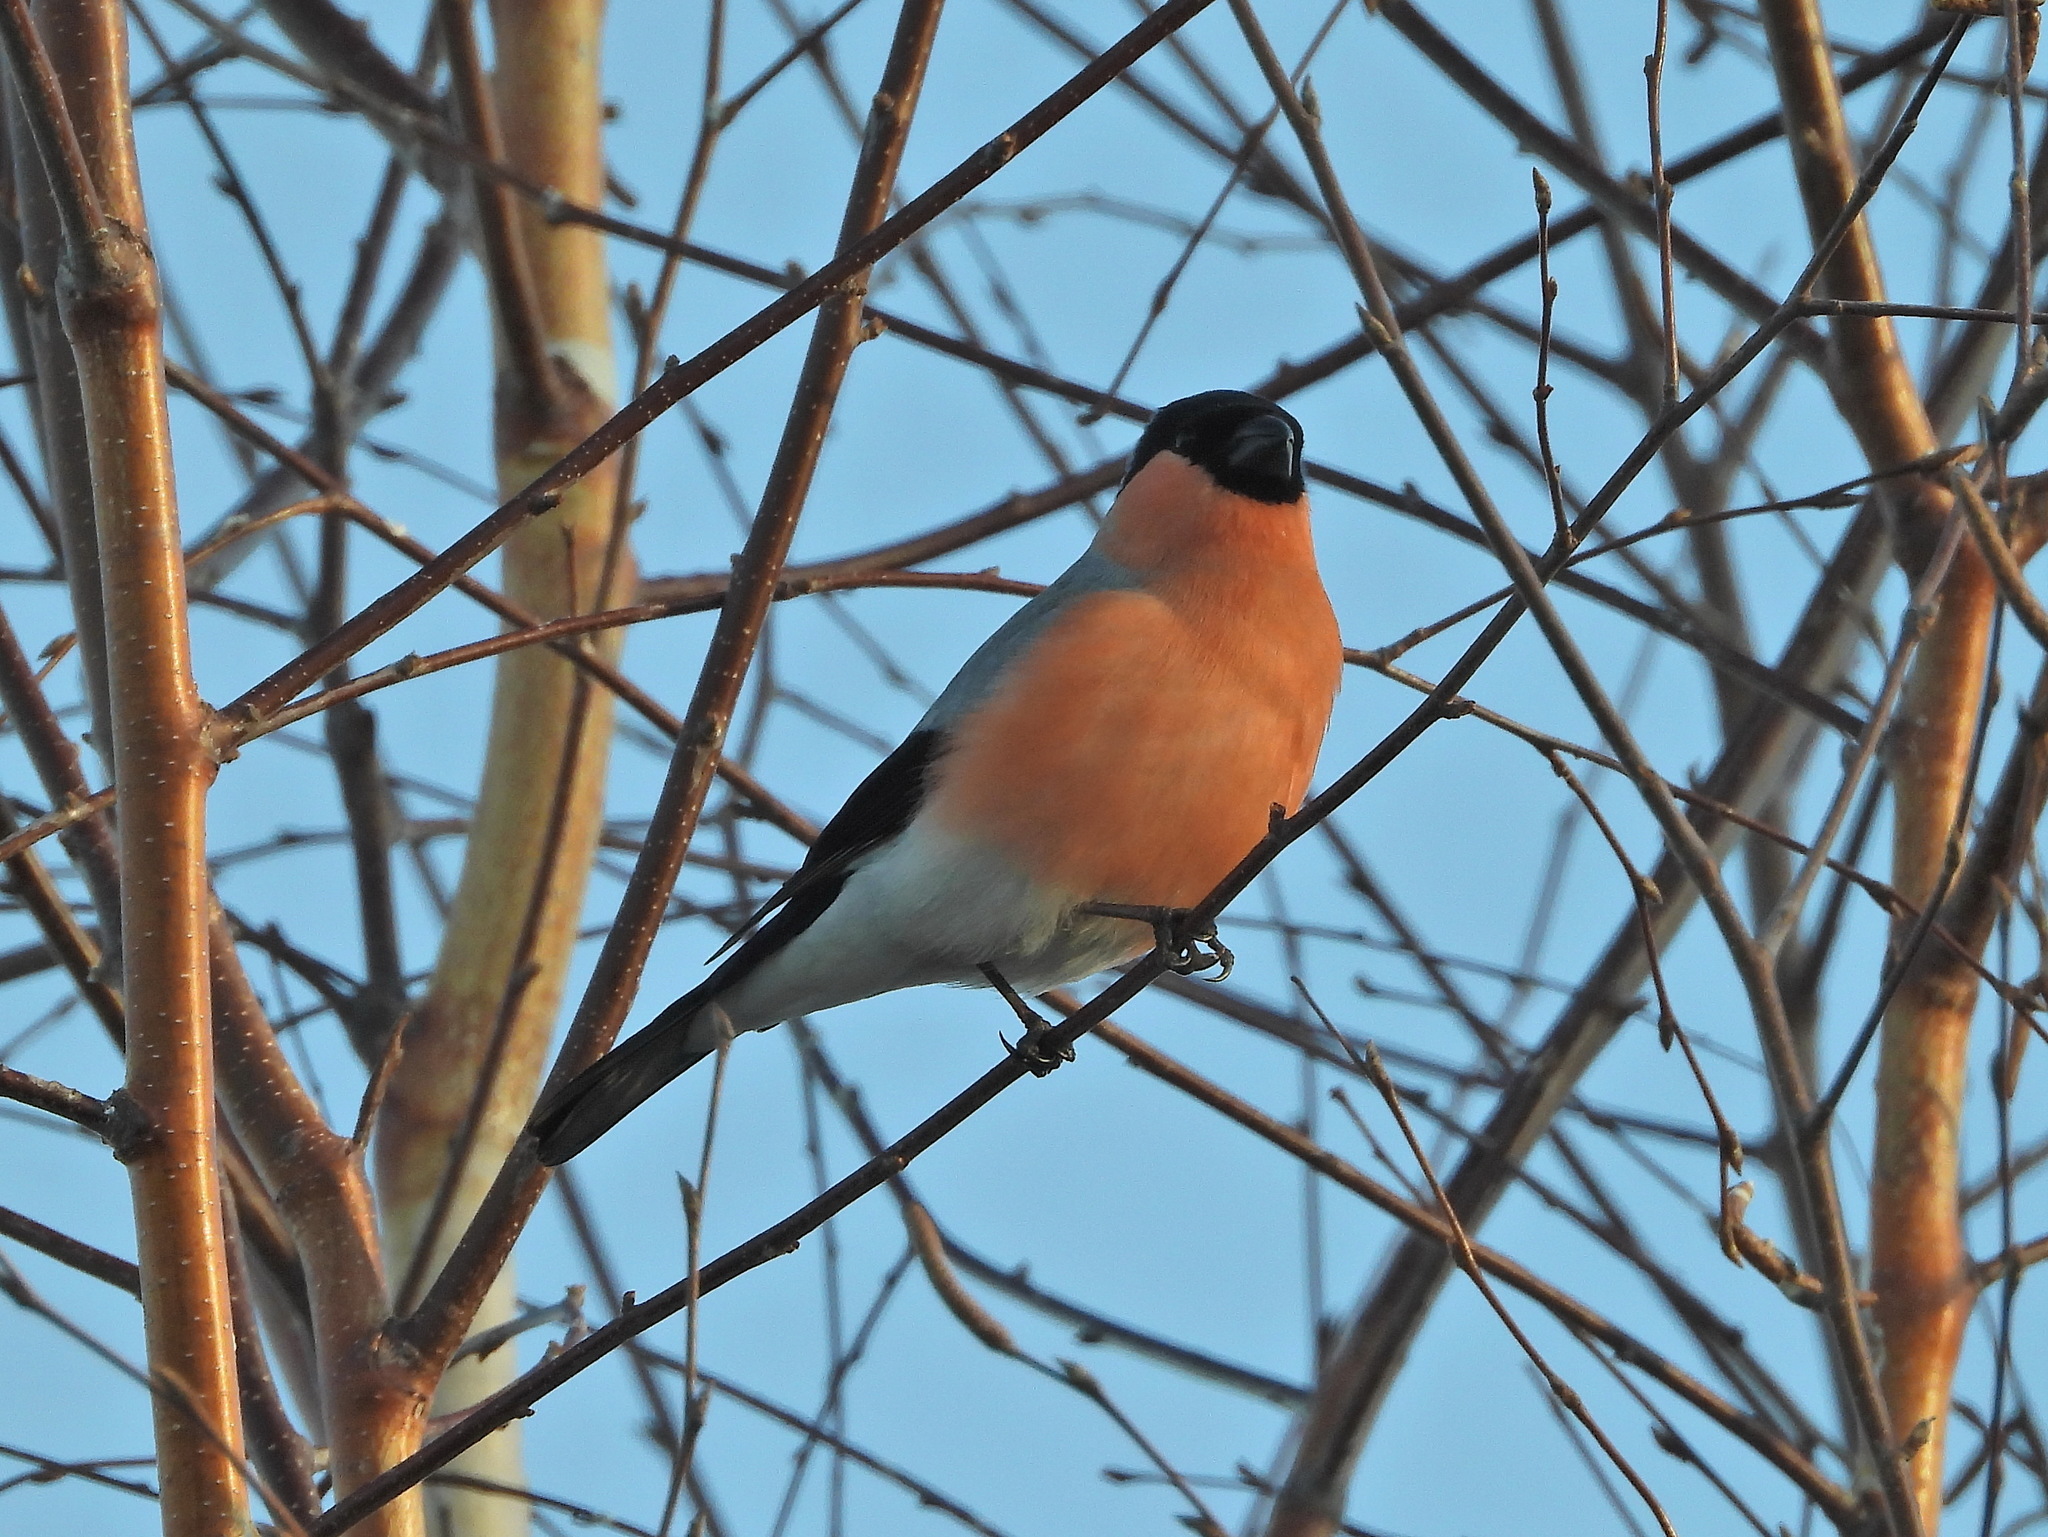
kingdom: Animalia
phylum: Chordata
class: Aves
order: Passeriformes
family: Fringillidae
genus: Pyrrhula
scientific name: Pyrrhula pyrrhula
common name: Eurasian bullfinch
